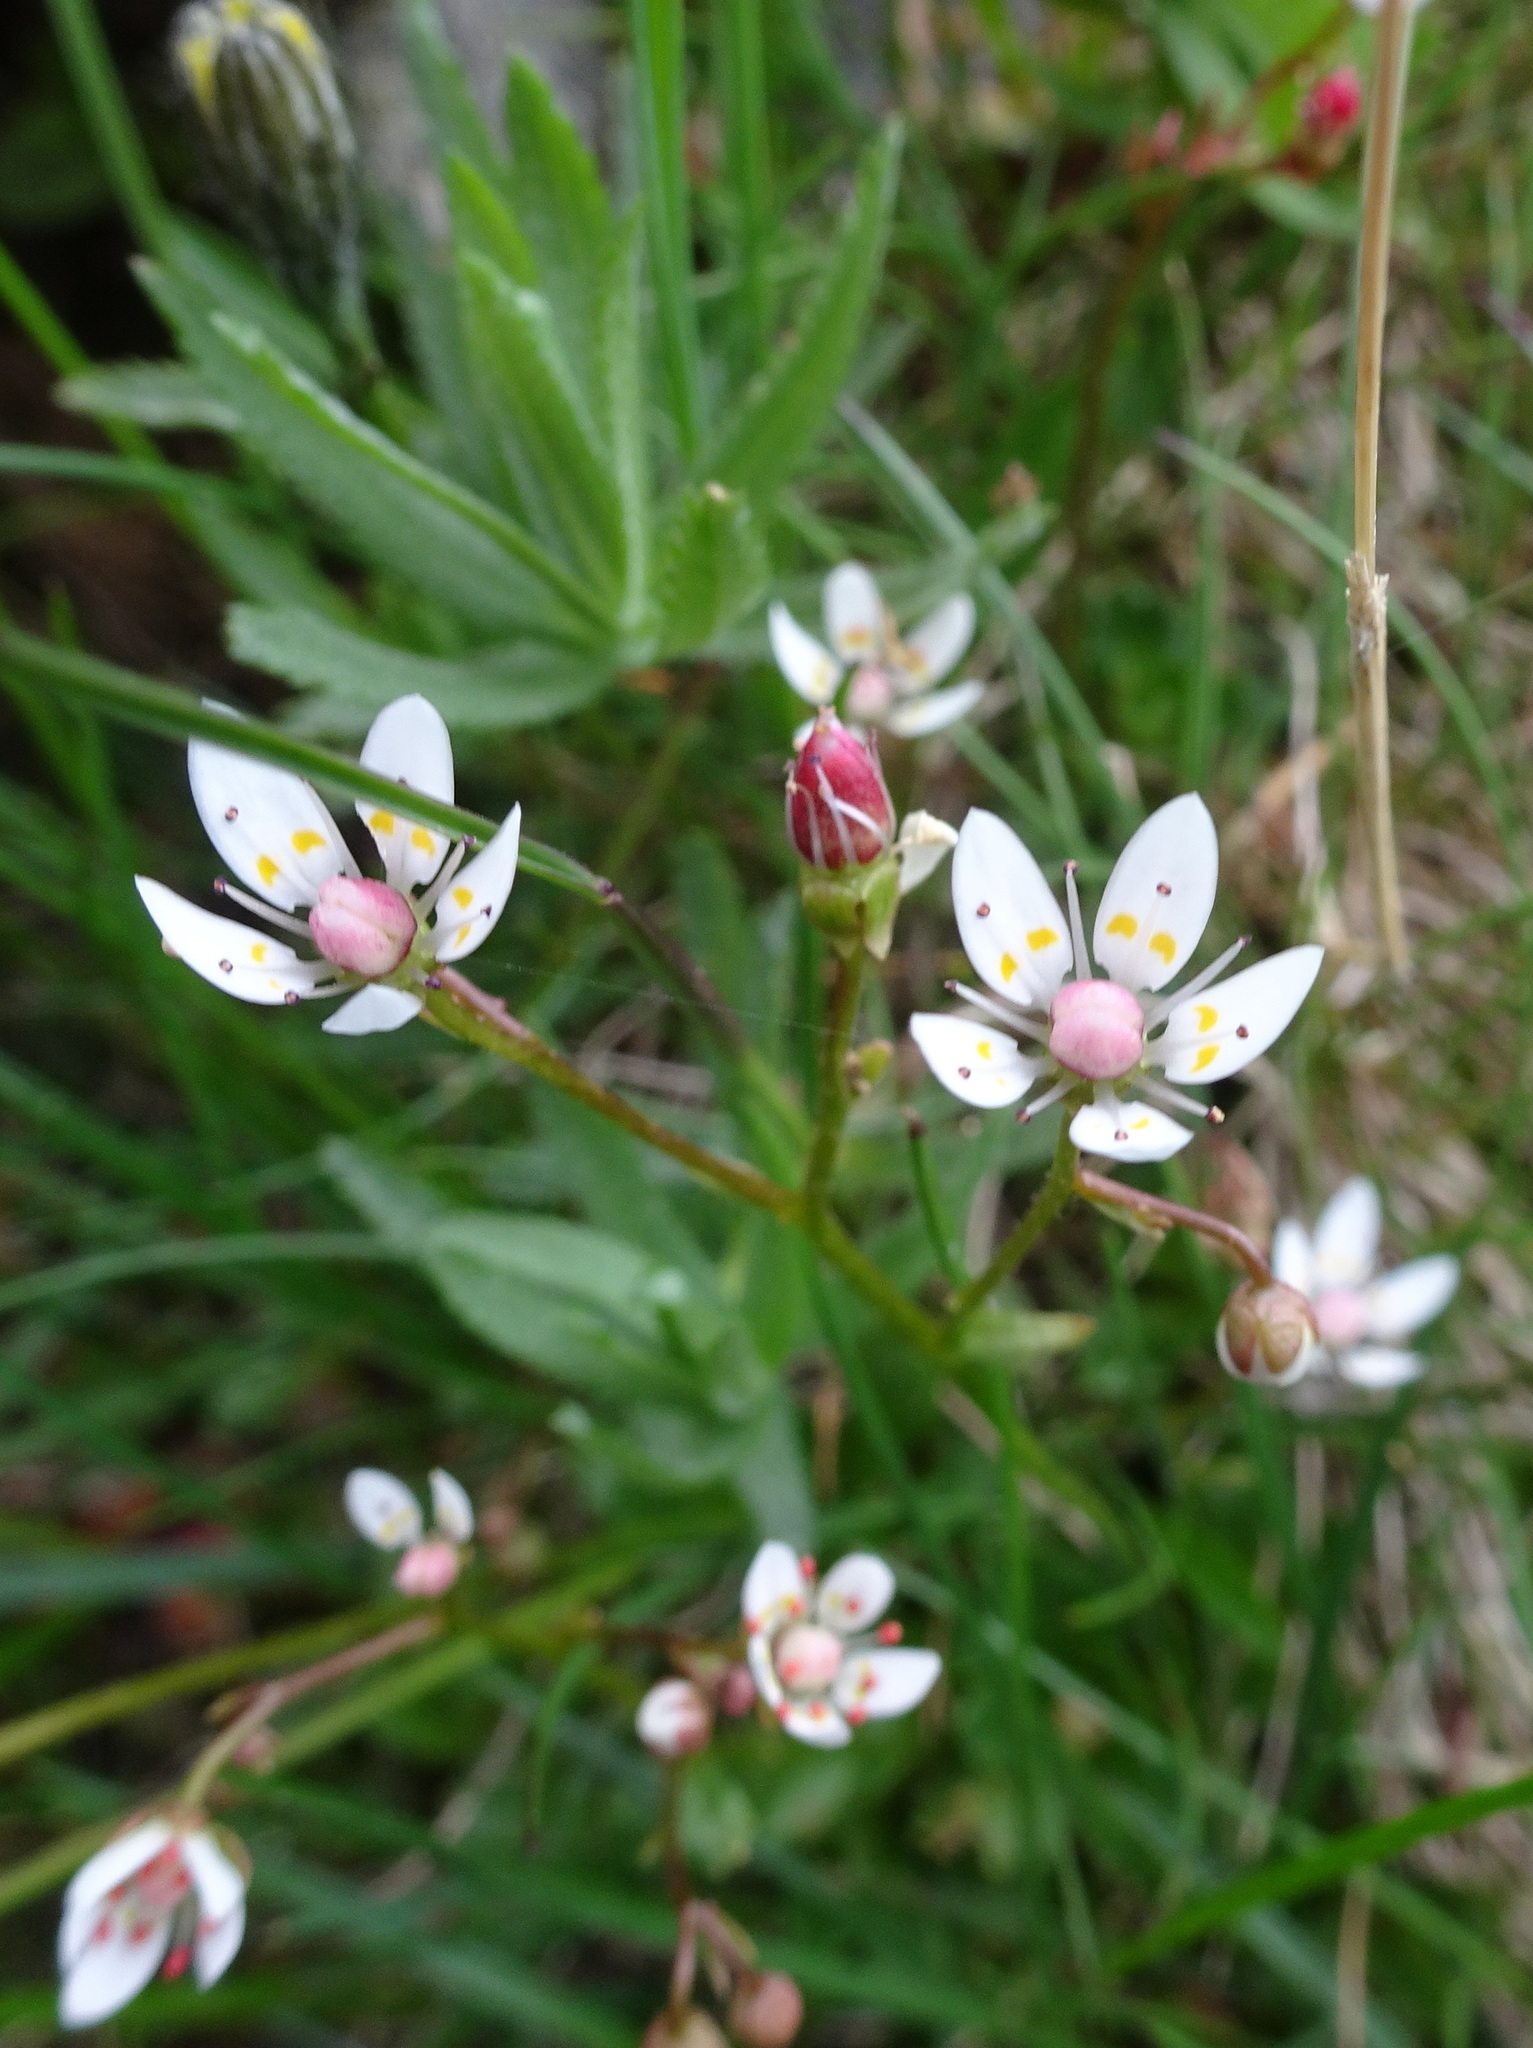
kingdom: Plantae
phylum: Tracheophyta
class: Magnoliopsida
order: Saxifragales
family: Saxifragaceae
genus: Micranthes
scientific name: Micranthes stellaris
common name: Starry saxifrage
